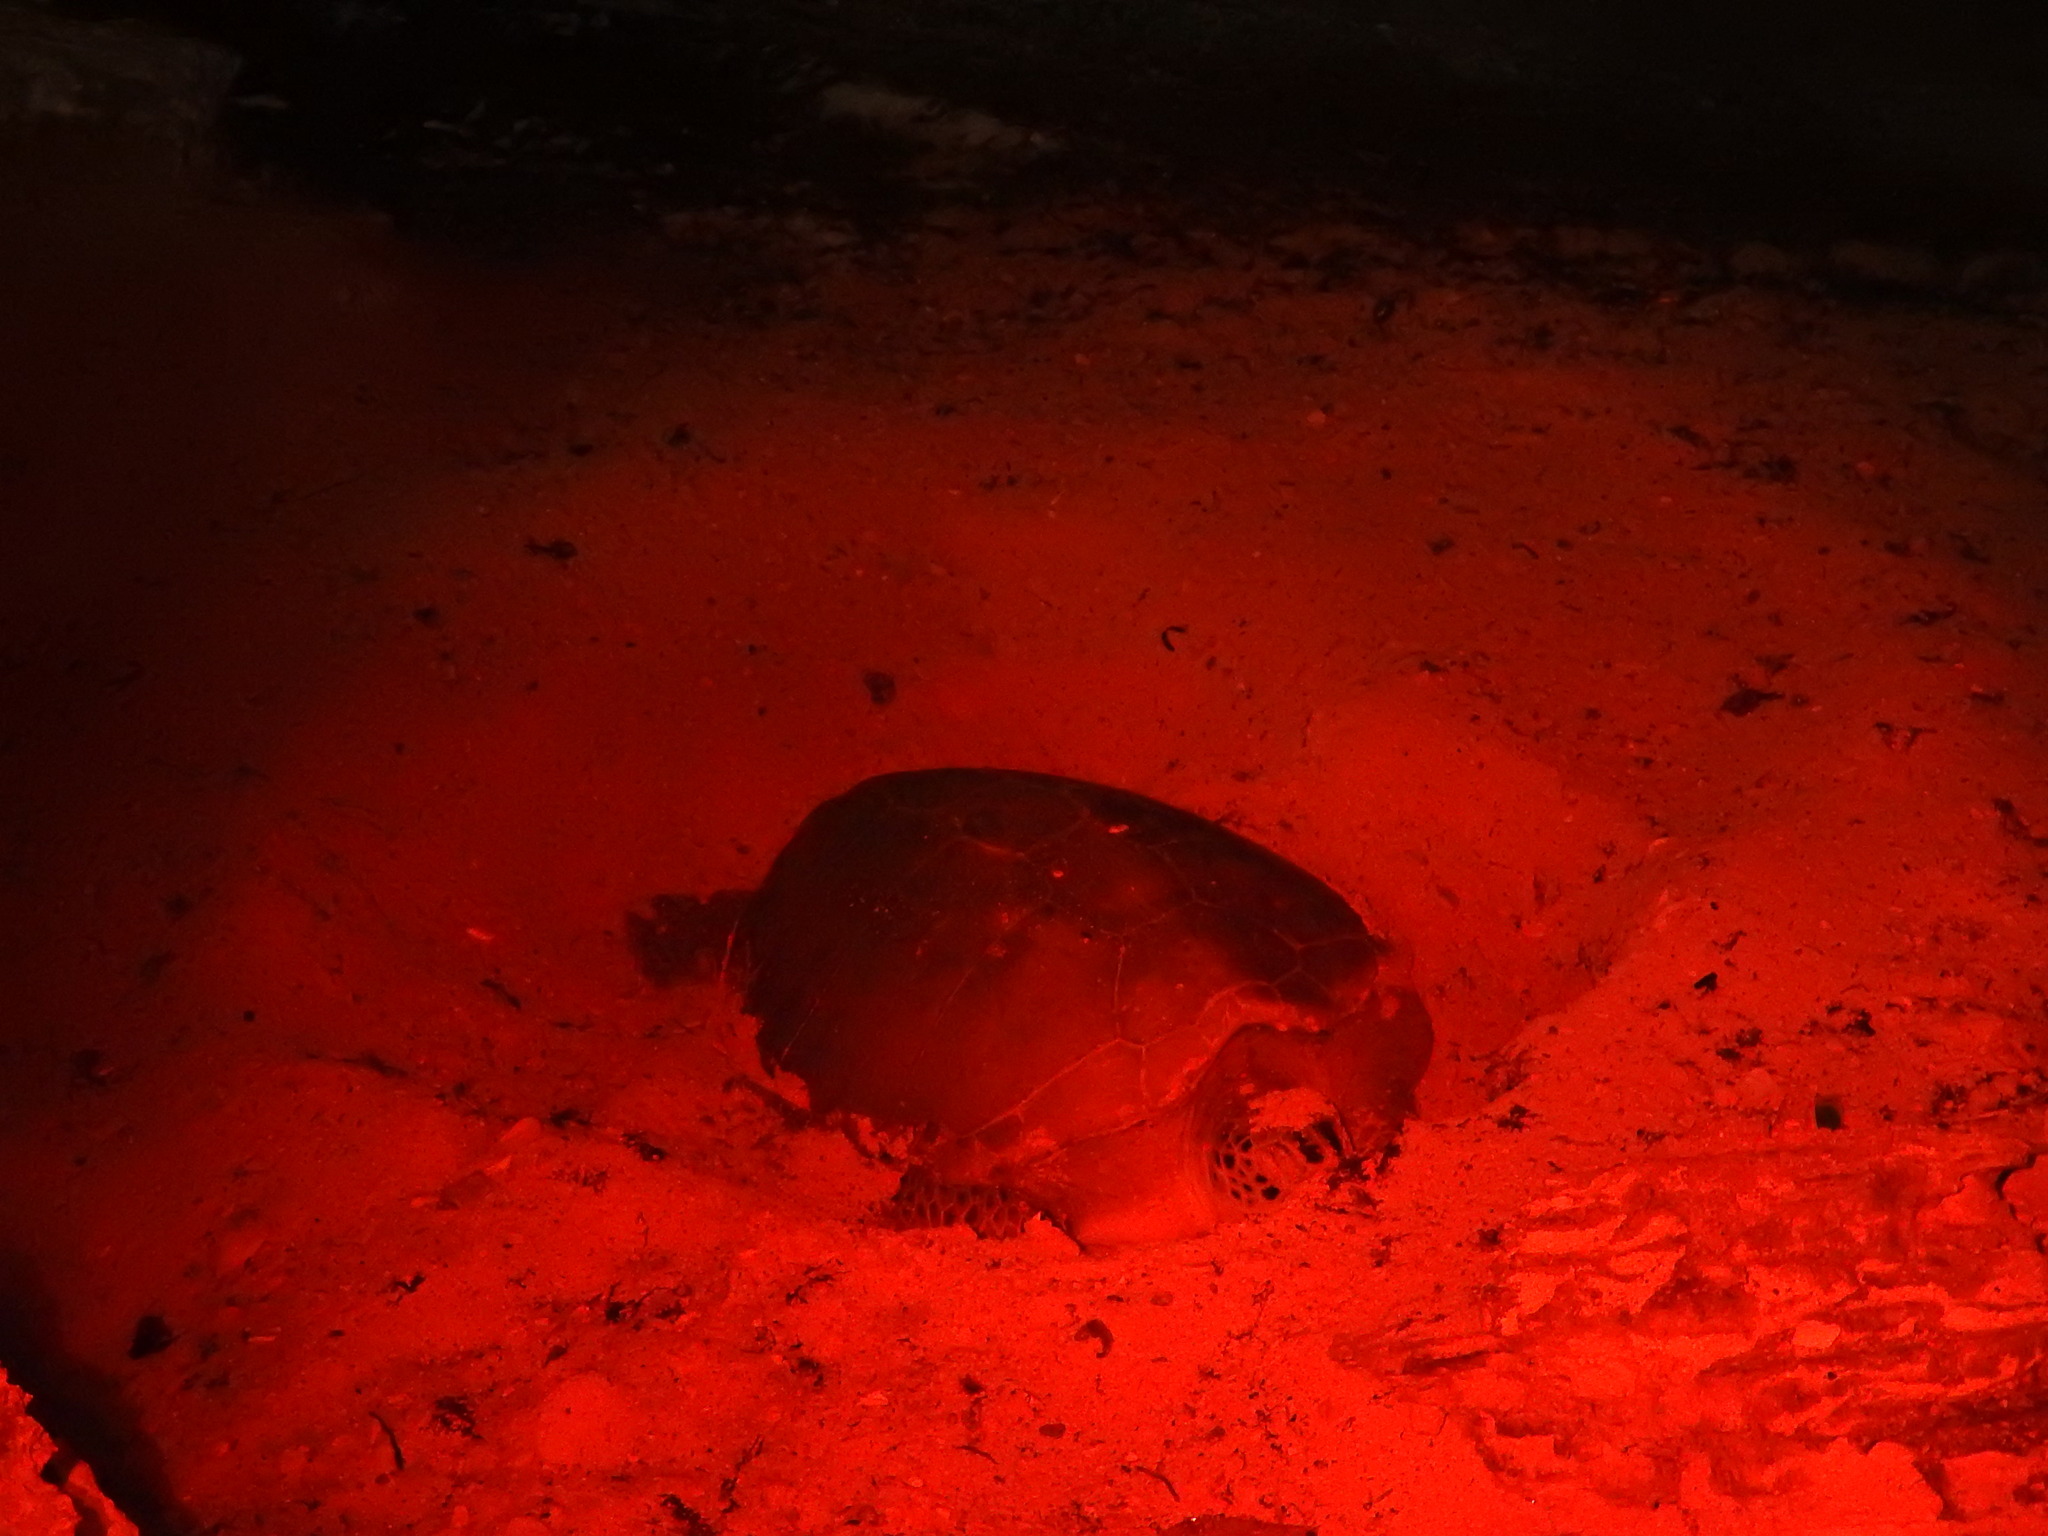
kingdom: Animalia
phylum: Chordata
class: Testudines
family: Cheloniidae
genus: Chelonia
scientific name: Chelonia mydas
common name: Green turtle
